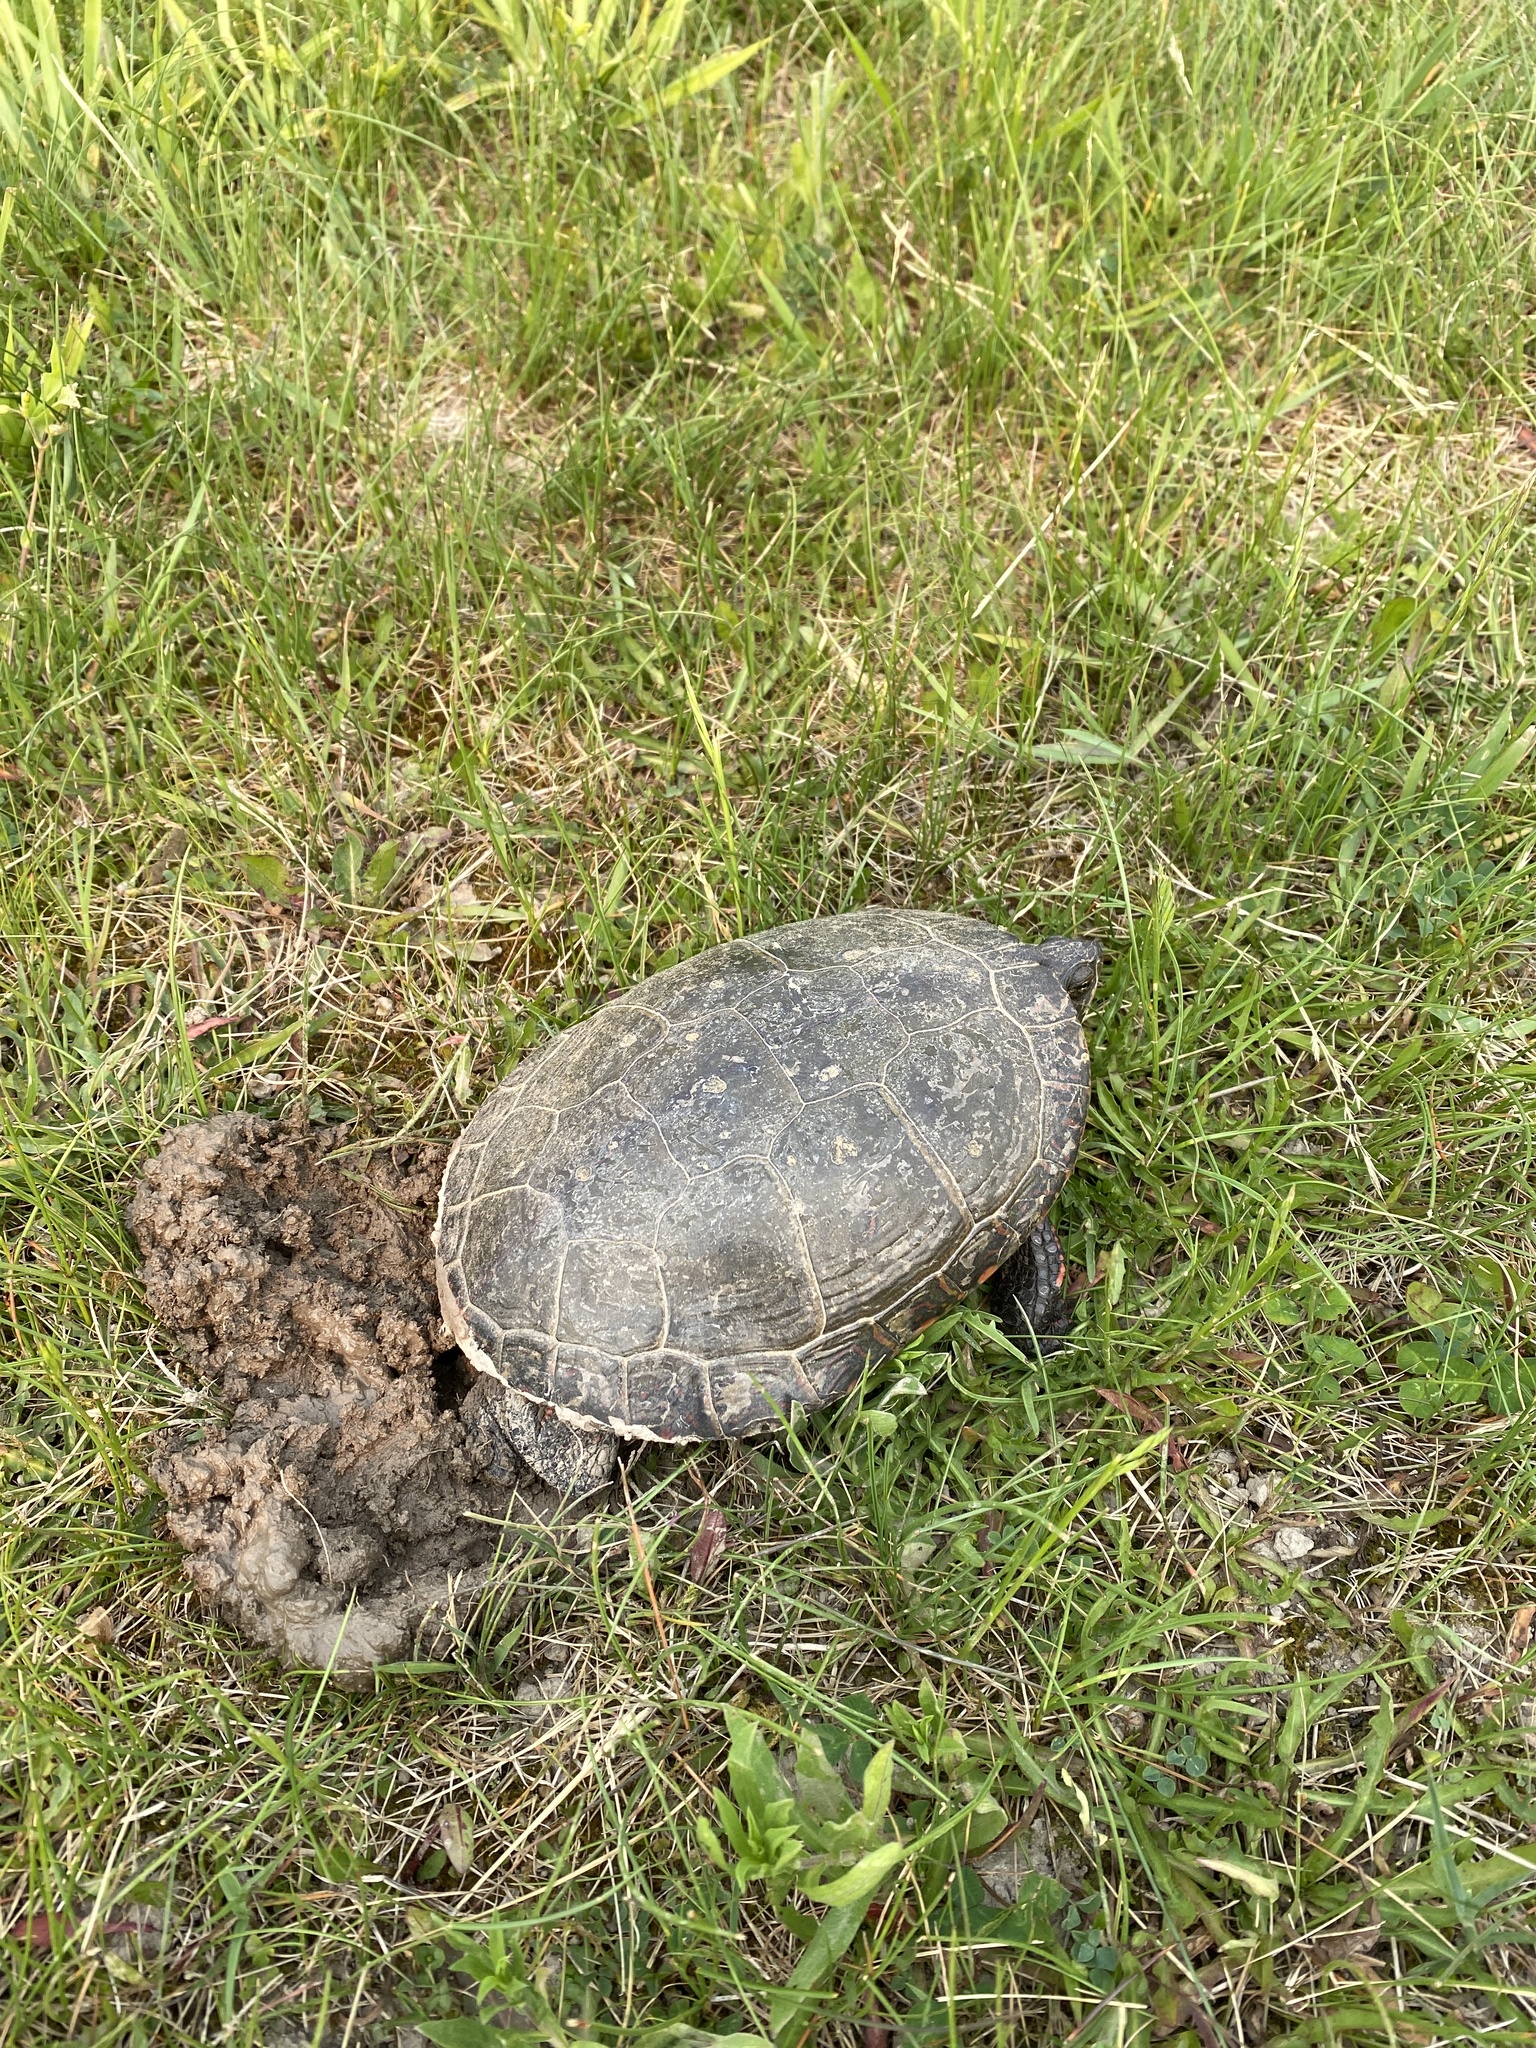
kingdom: Animalia
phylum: Chordata
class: Testudines
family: Emydidae
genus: Chrysemys
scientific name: Chrysemys picta
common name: Painted turtle
